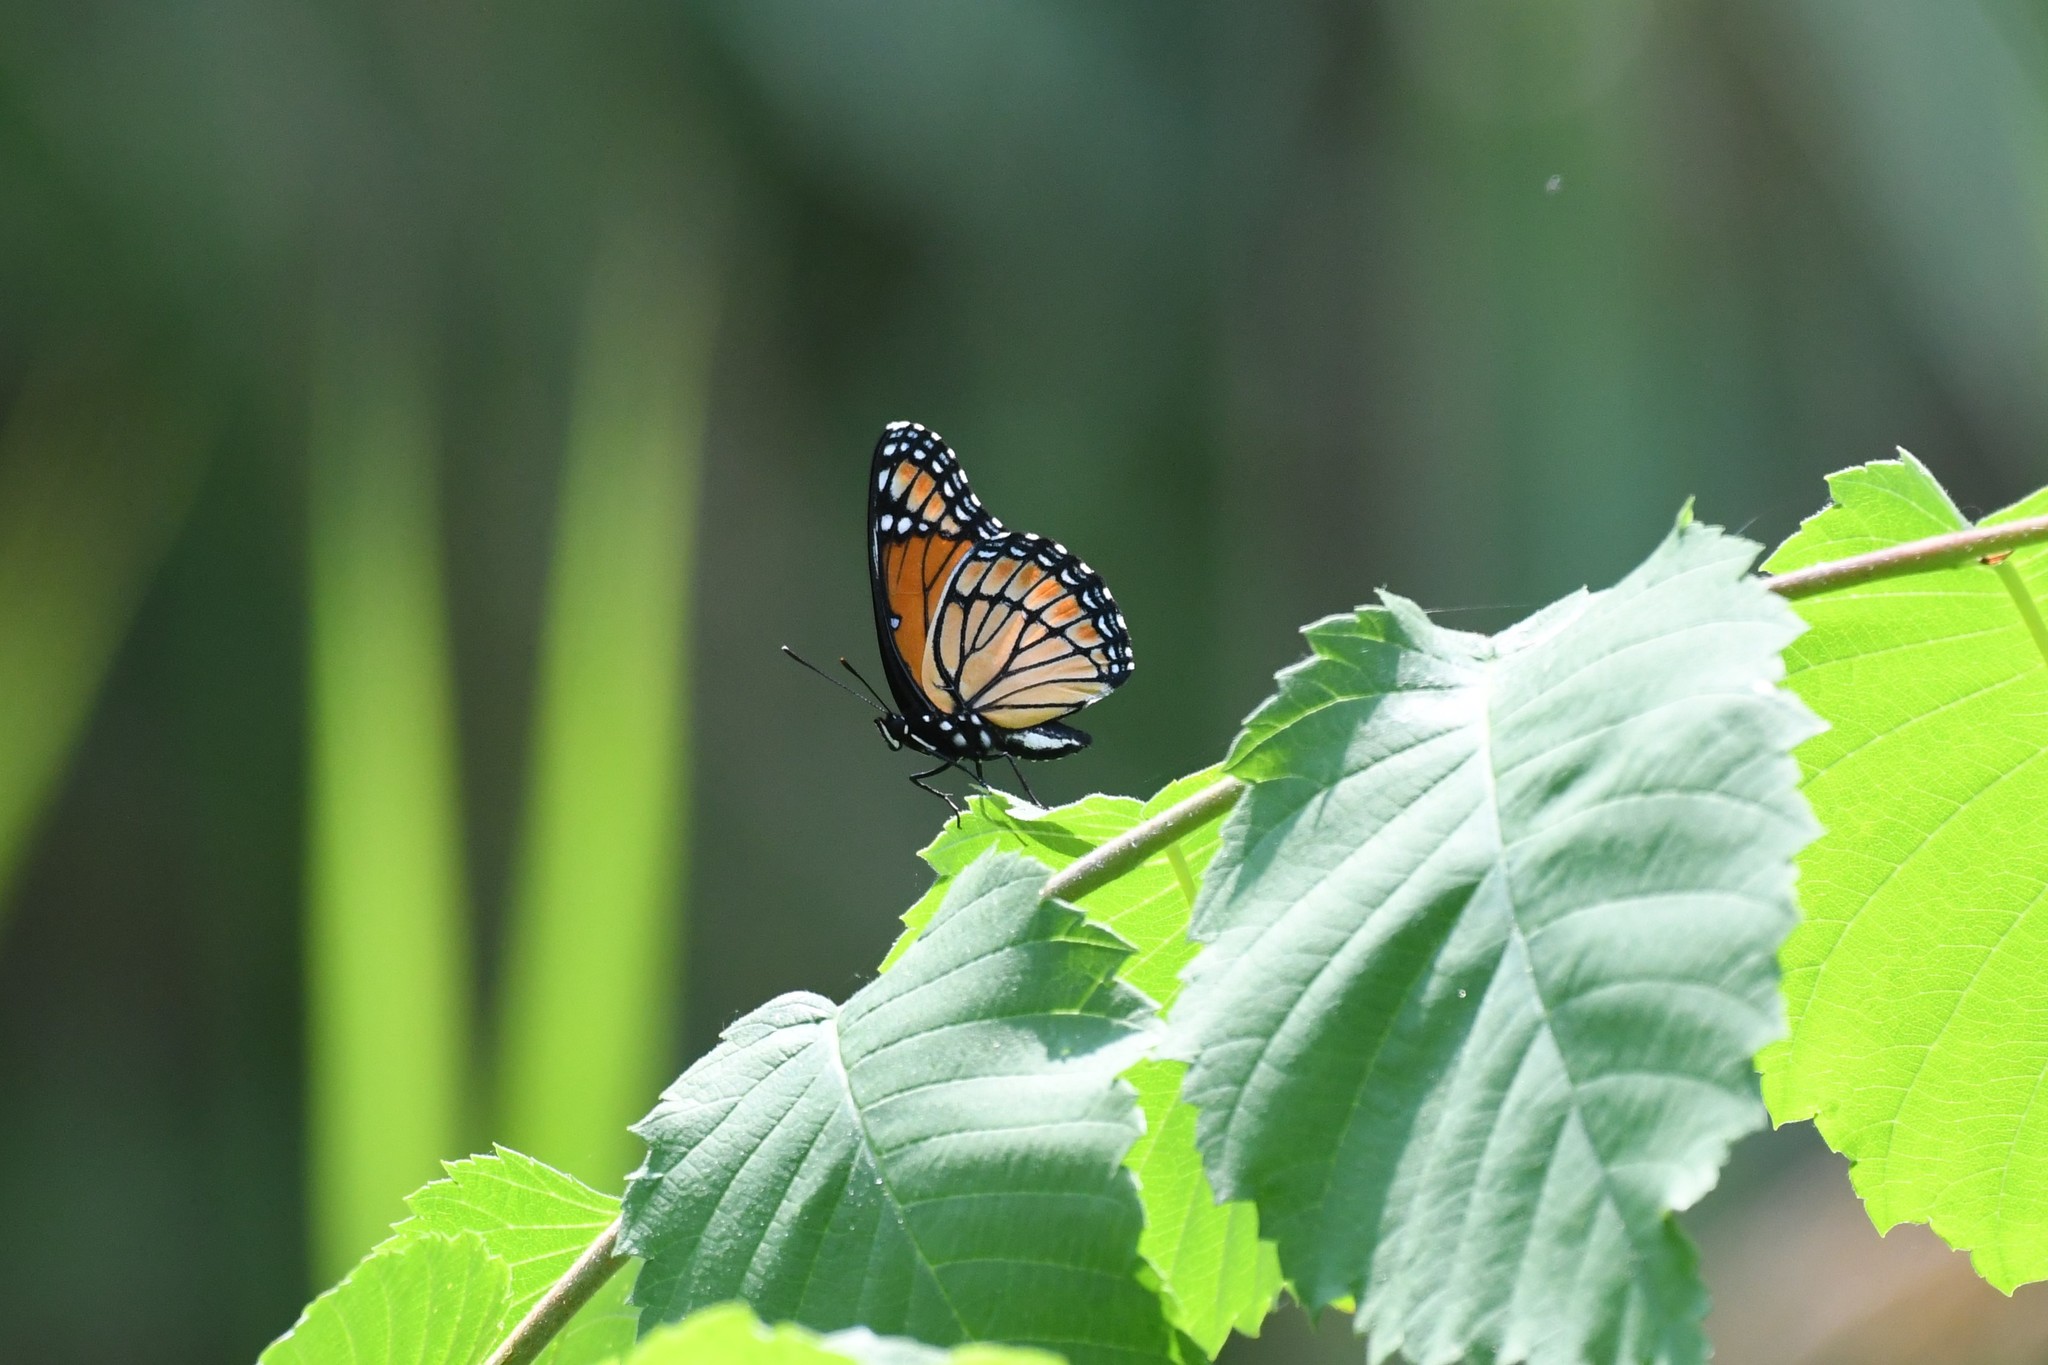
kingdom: Animalia
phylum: Arthropoda
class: Insecta
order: Lepidoptera
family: Nymphalidae
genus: Limenitis
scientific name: Limenitis archippus
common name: Viceroy
